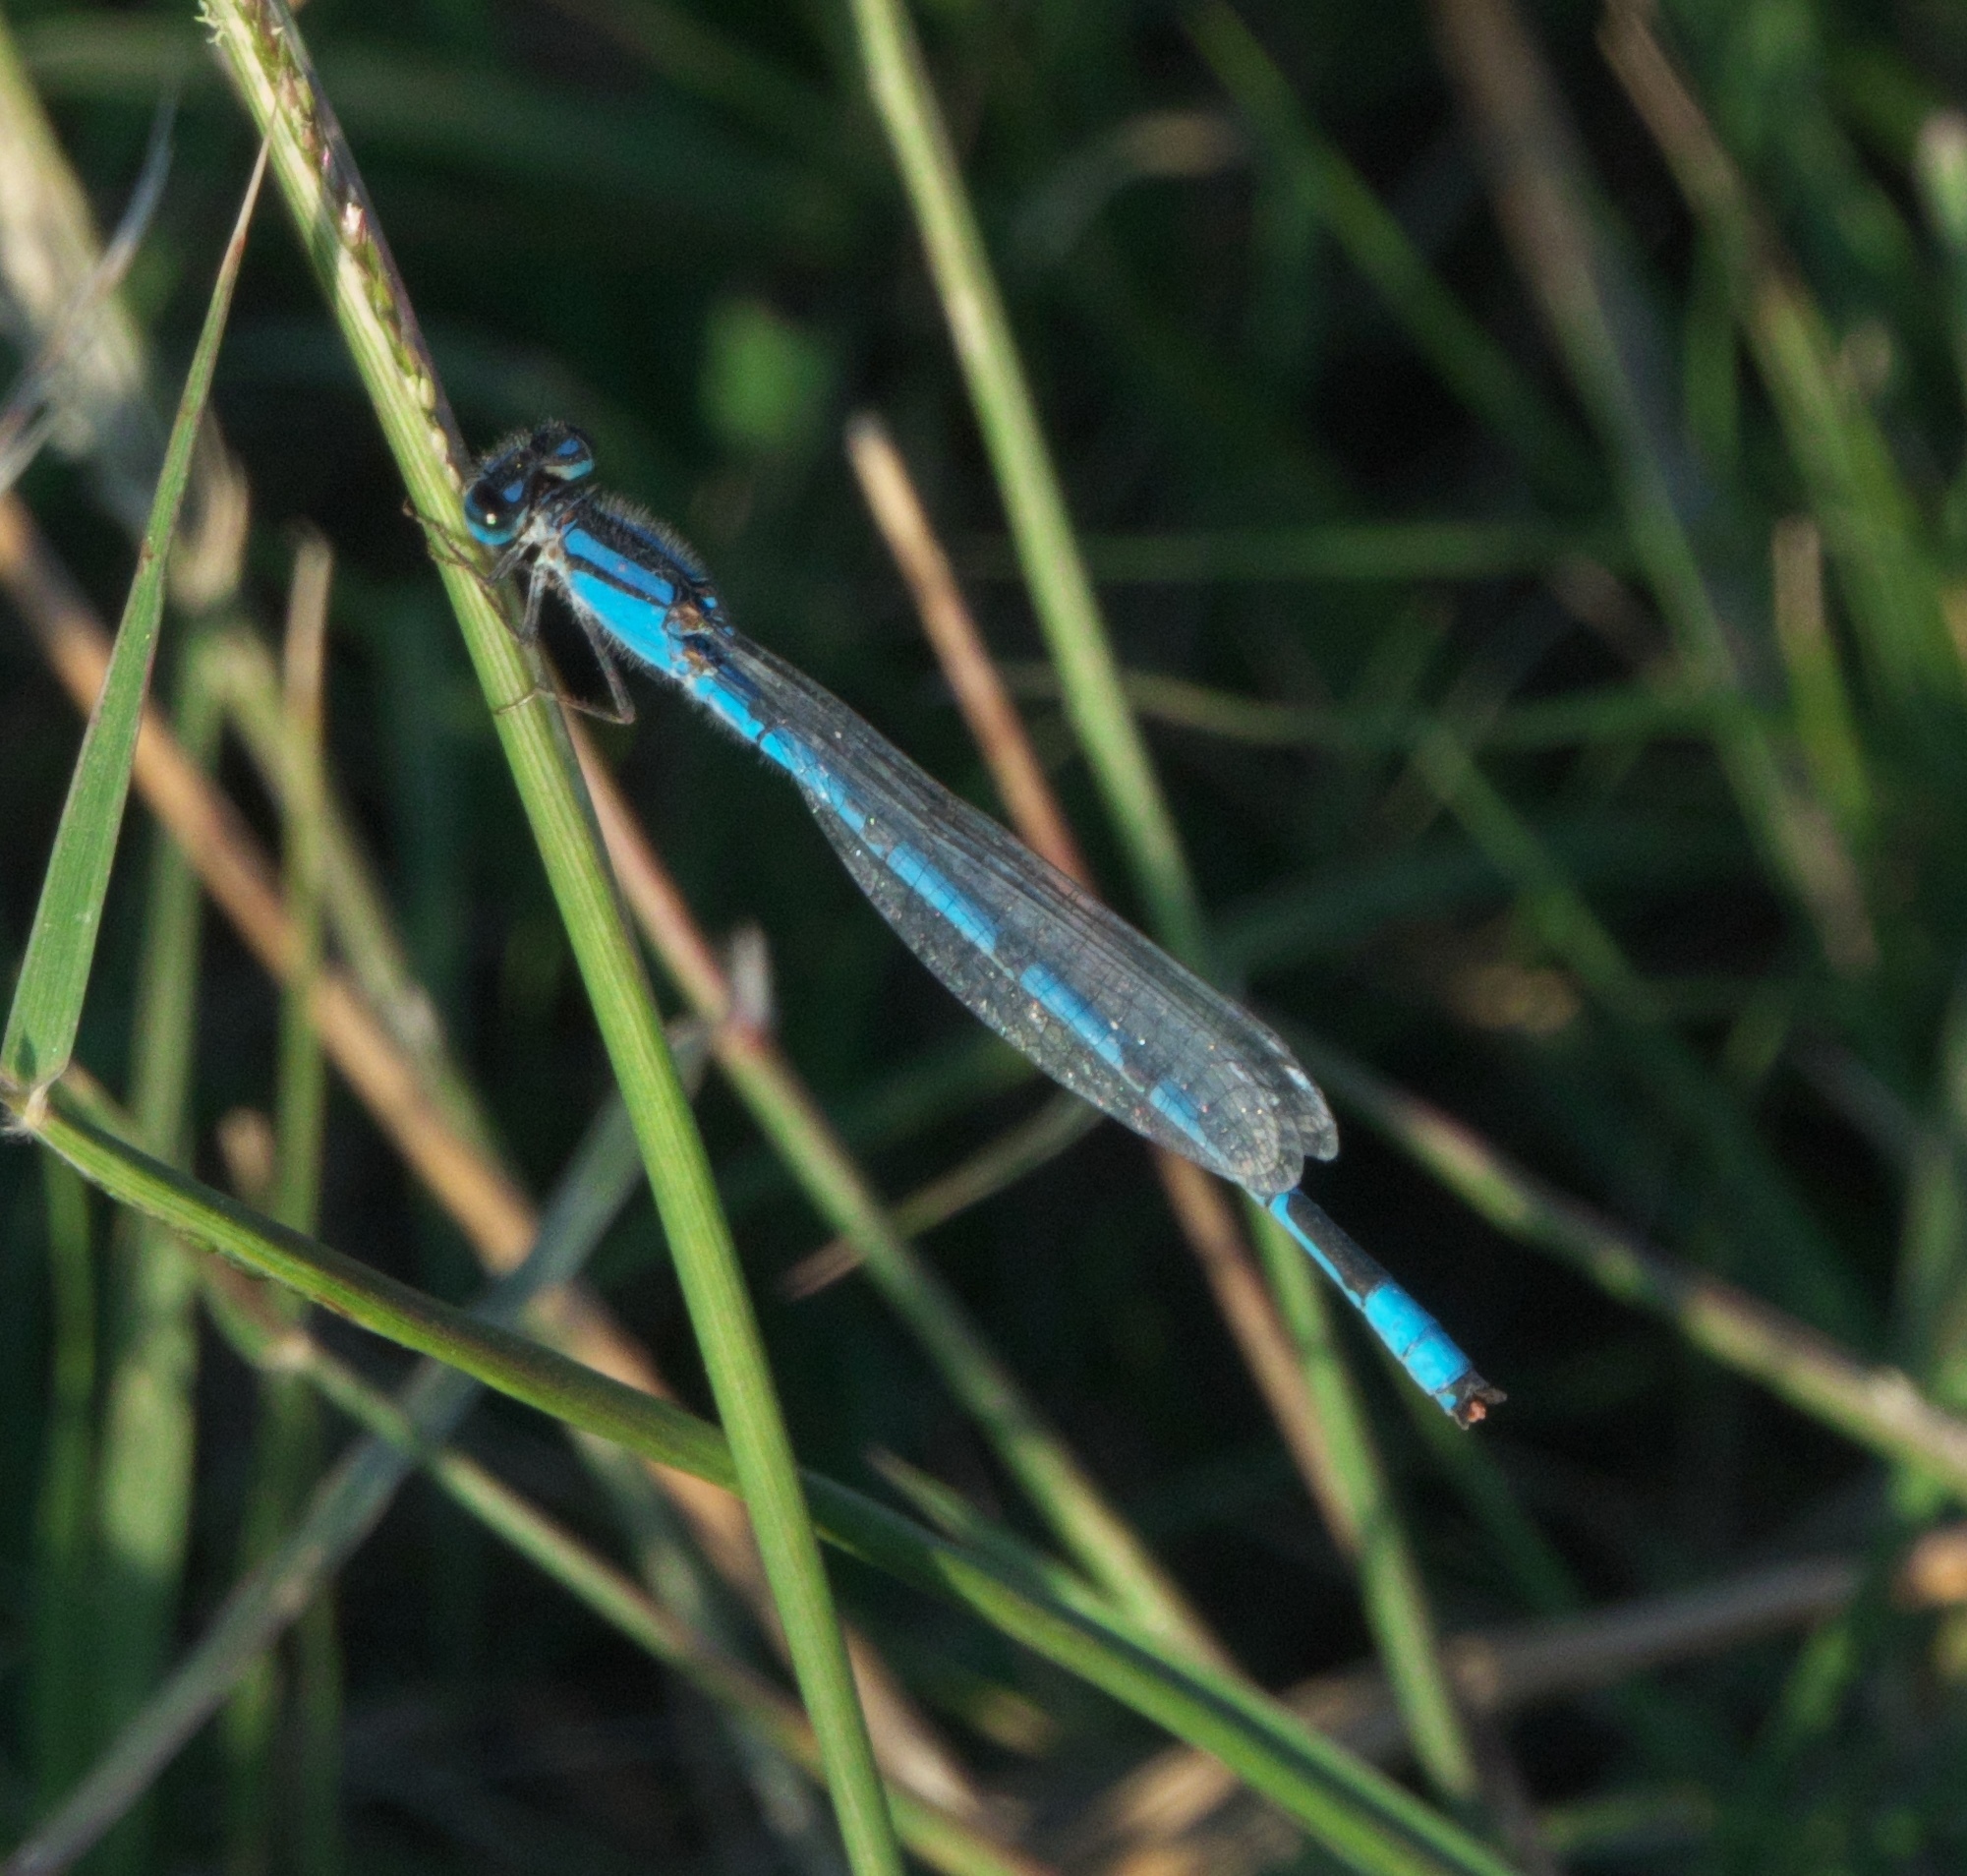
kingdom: Animalia
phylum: Arthropoda
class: Insecta
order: Odonata
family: Coenagrionidae
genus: Enallagma
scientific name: Enallagma civile
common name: Damselfly
